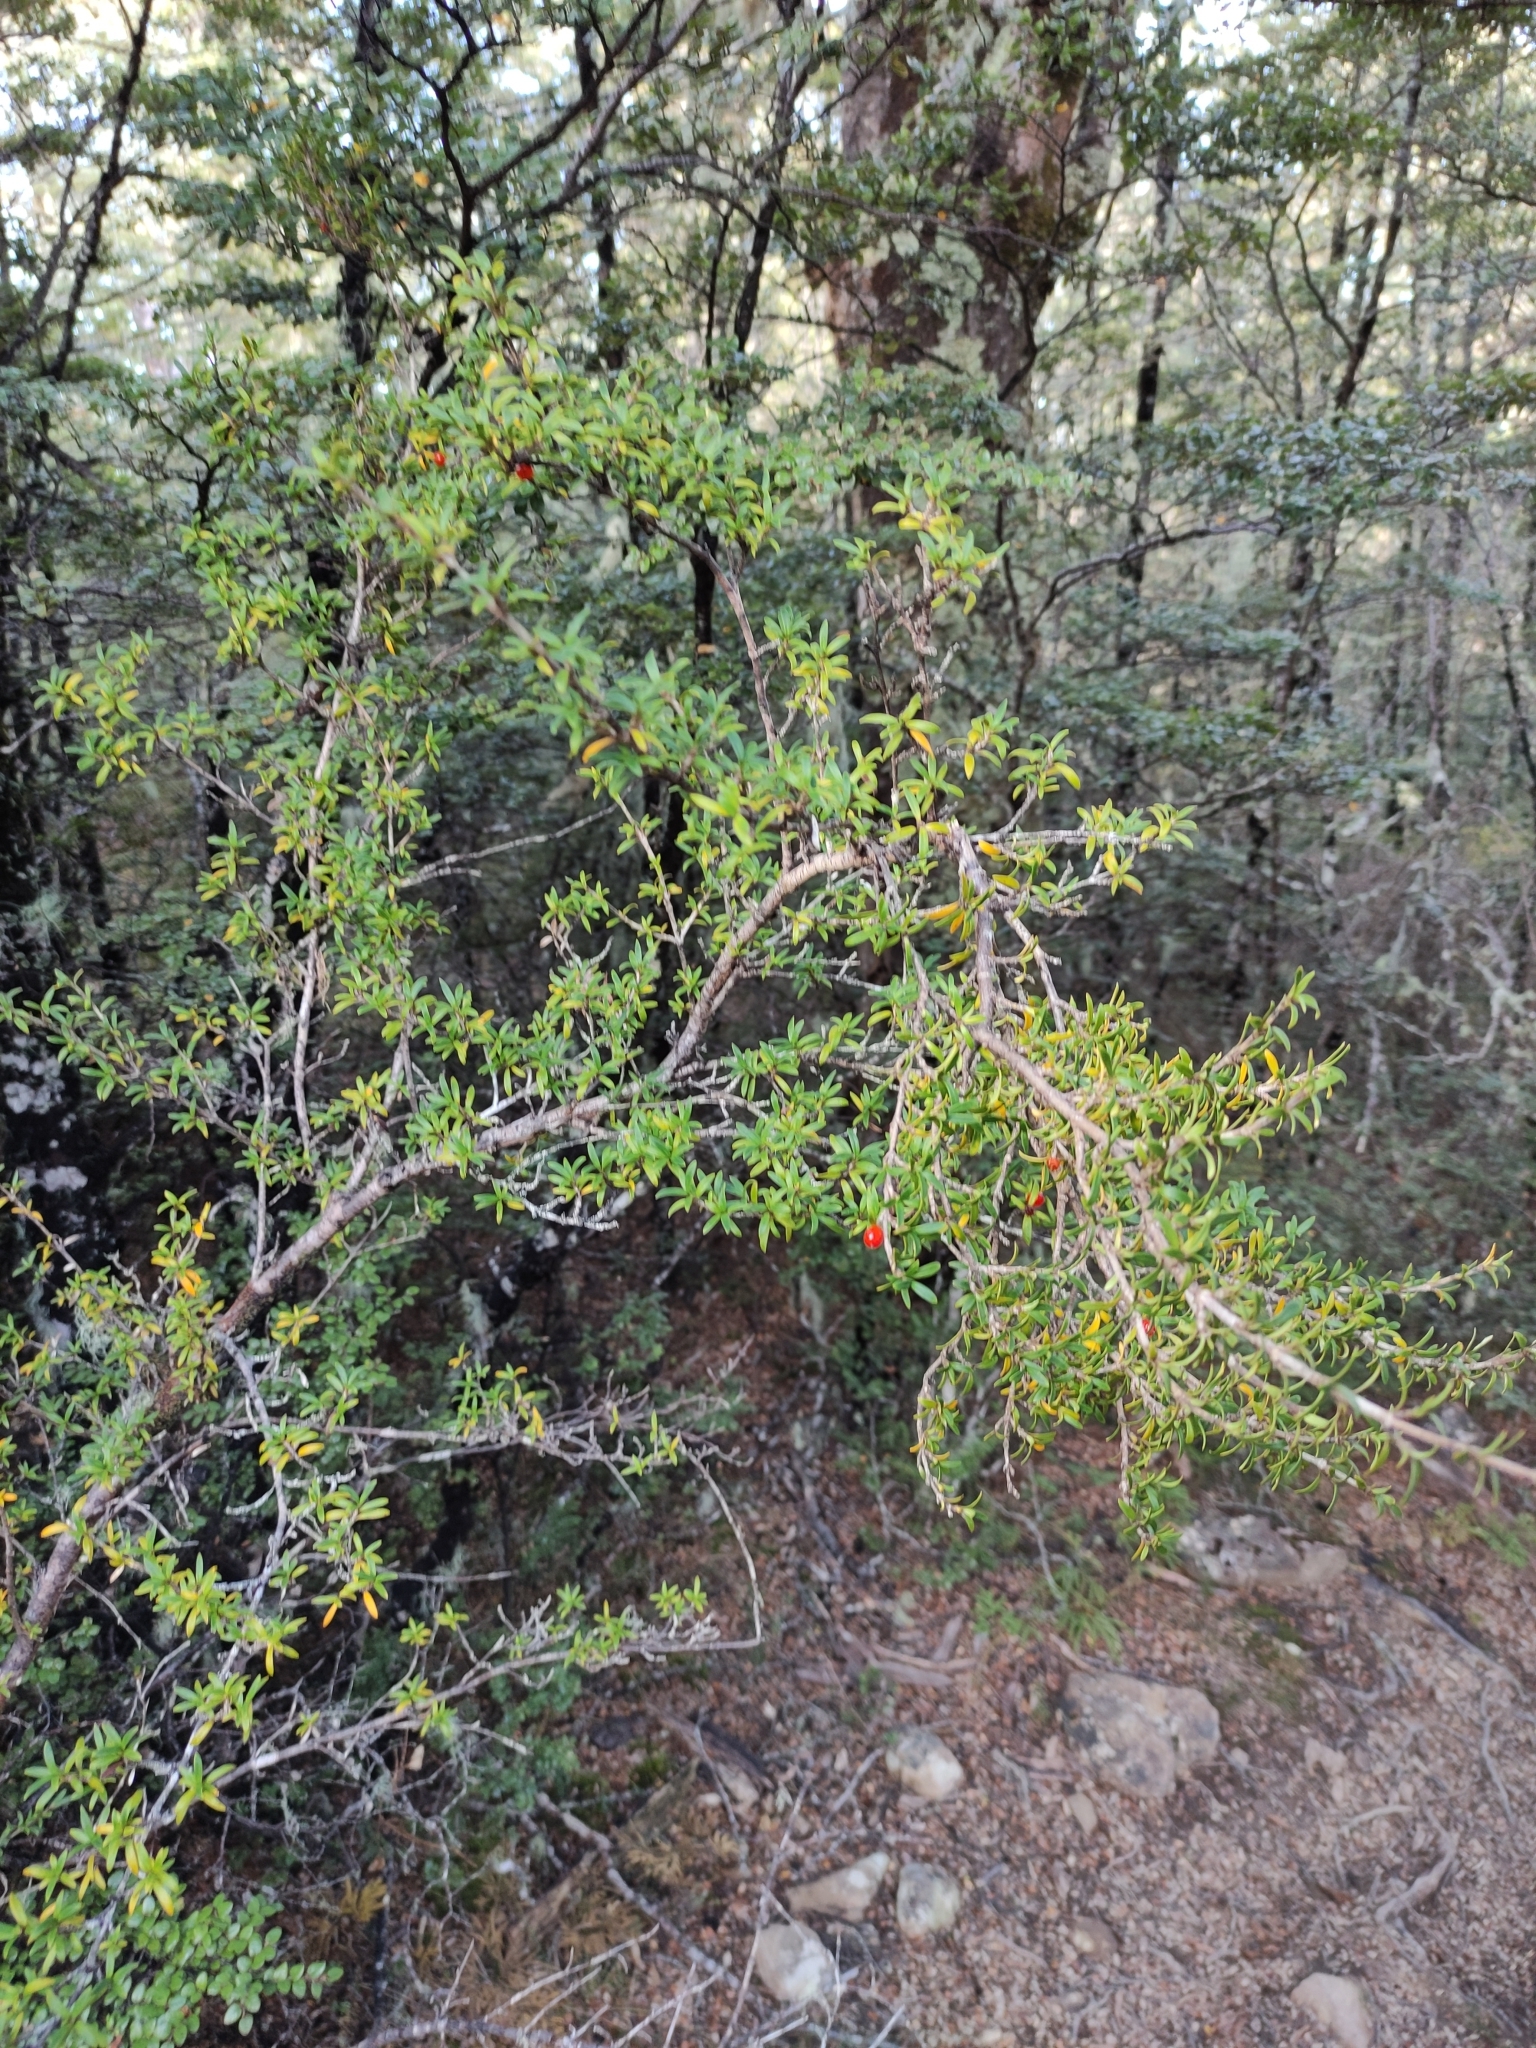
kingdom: Plantae
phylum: Tracheophyta
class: Magnoliopsida
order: Gentianales
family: Rubiaceae
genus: Coprosma
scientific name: Coprosma pseudocuneata
